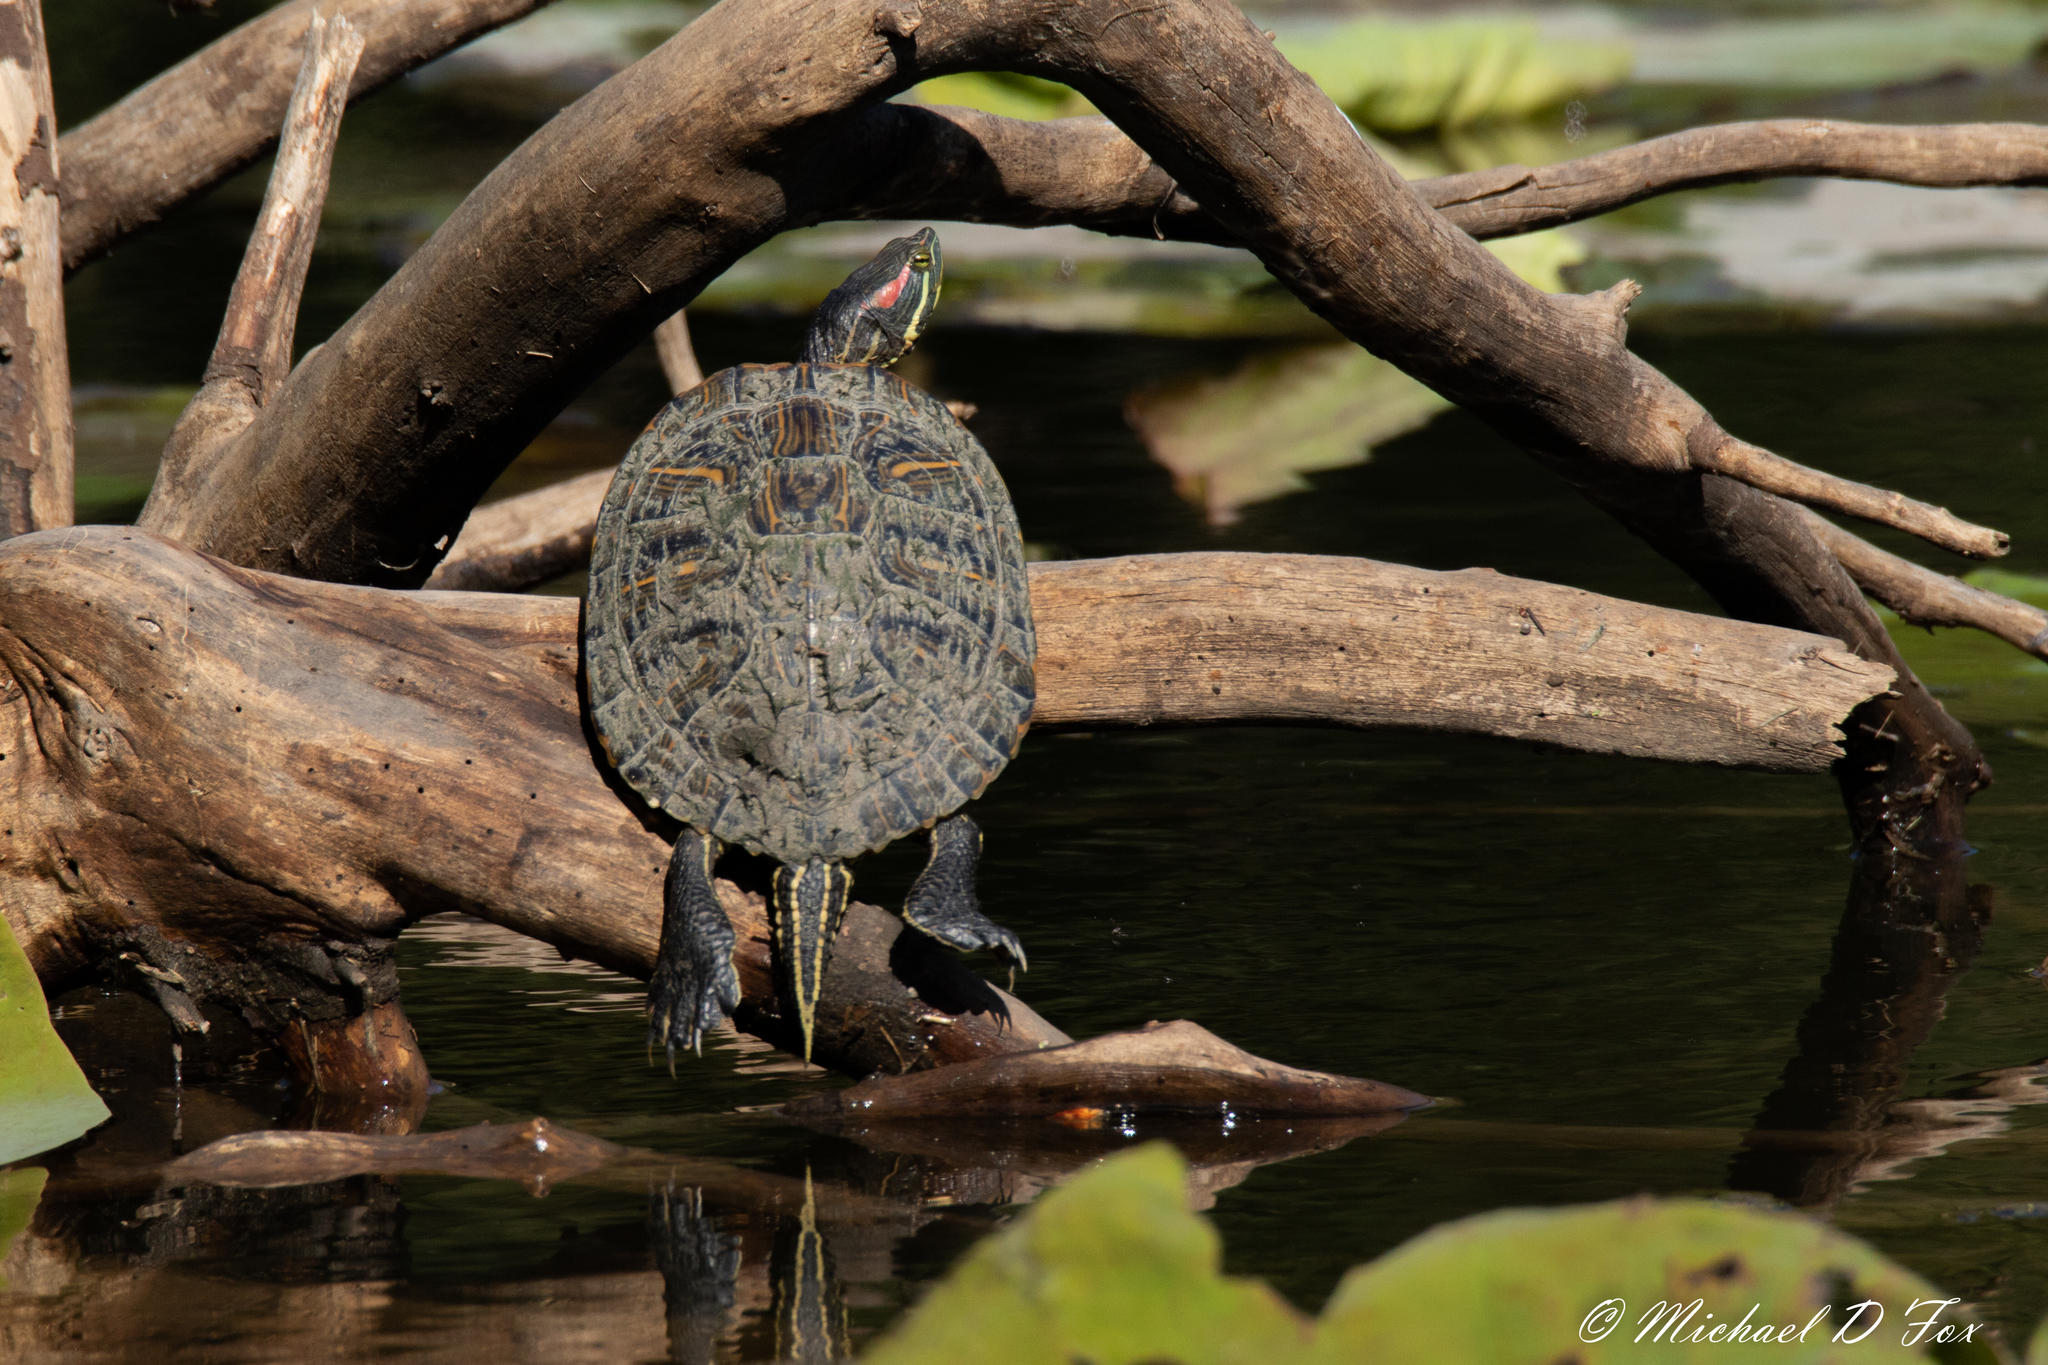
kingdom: Animalia
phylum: Chordata
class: Testudines
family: Emydidae
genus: Trachemys
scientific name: Trachemys scripta
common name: Slider
